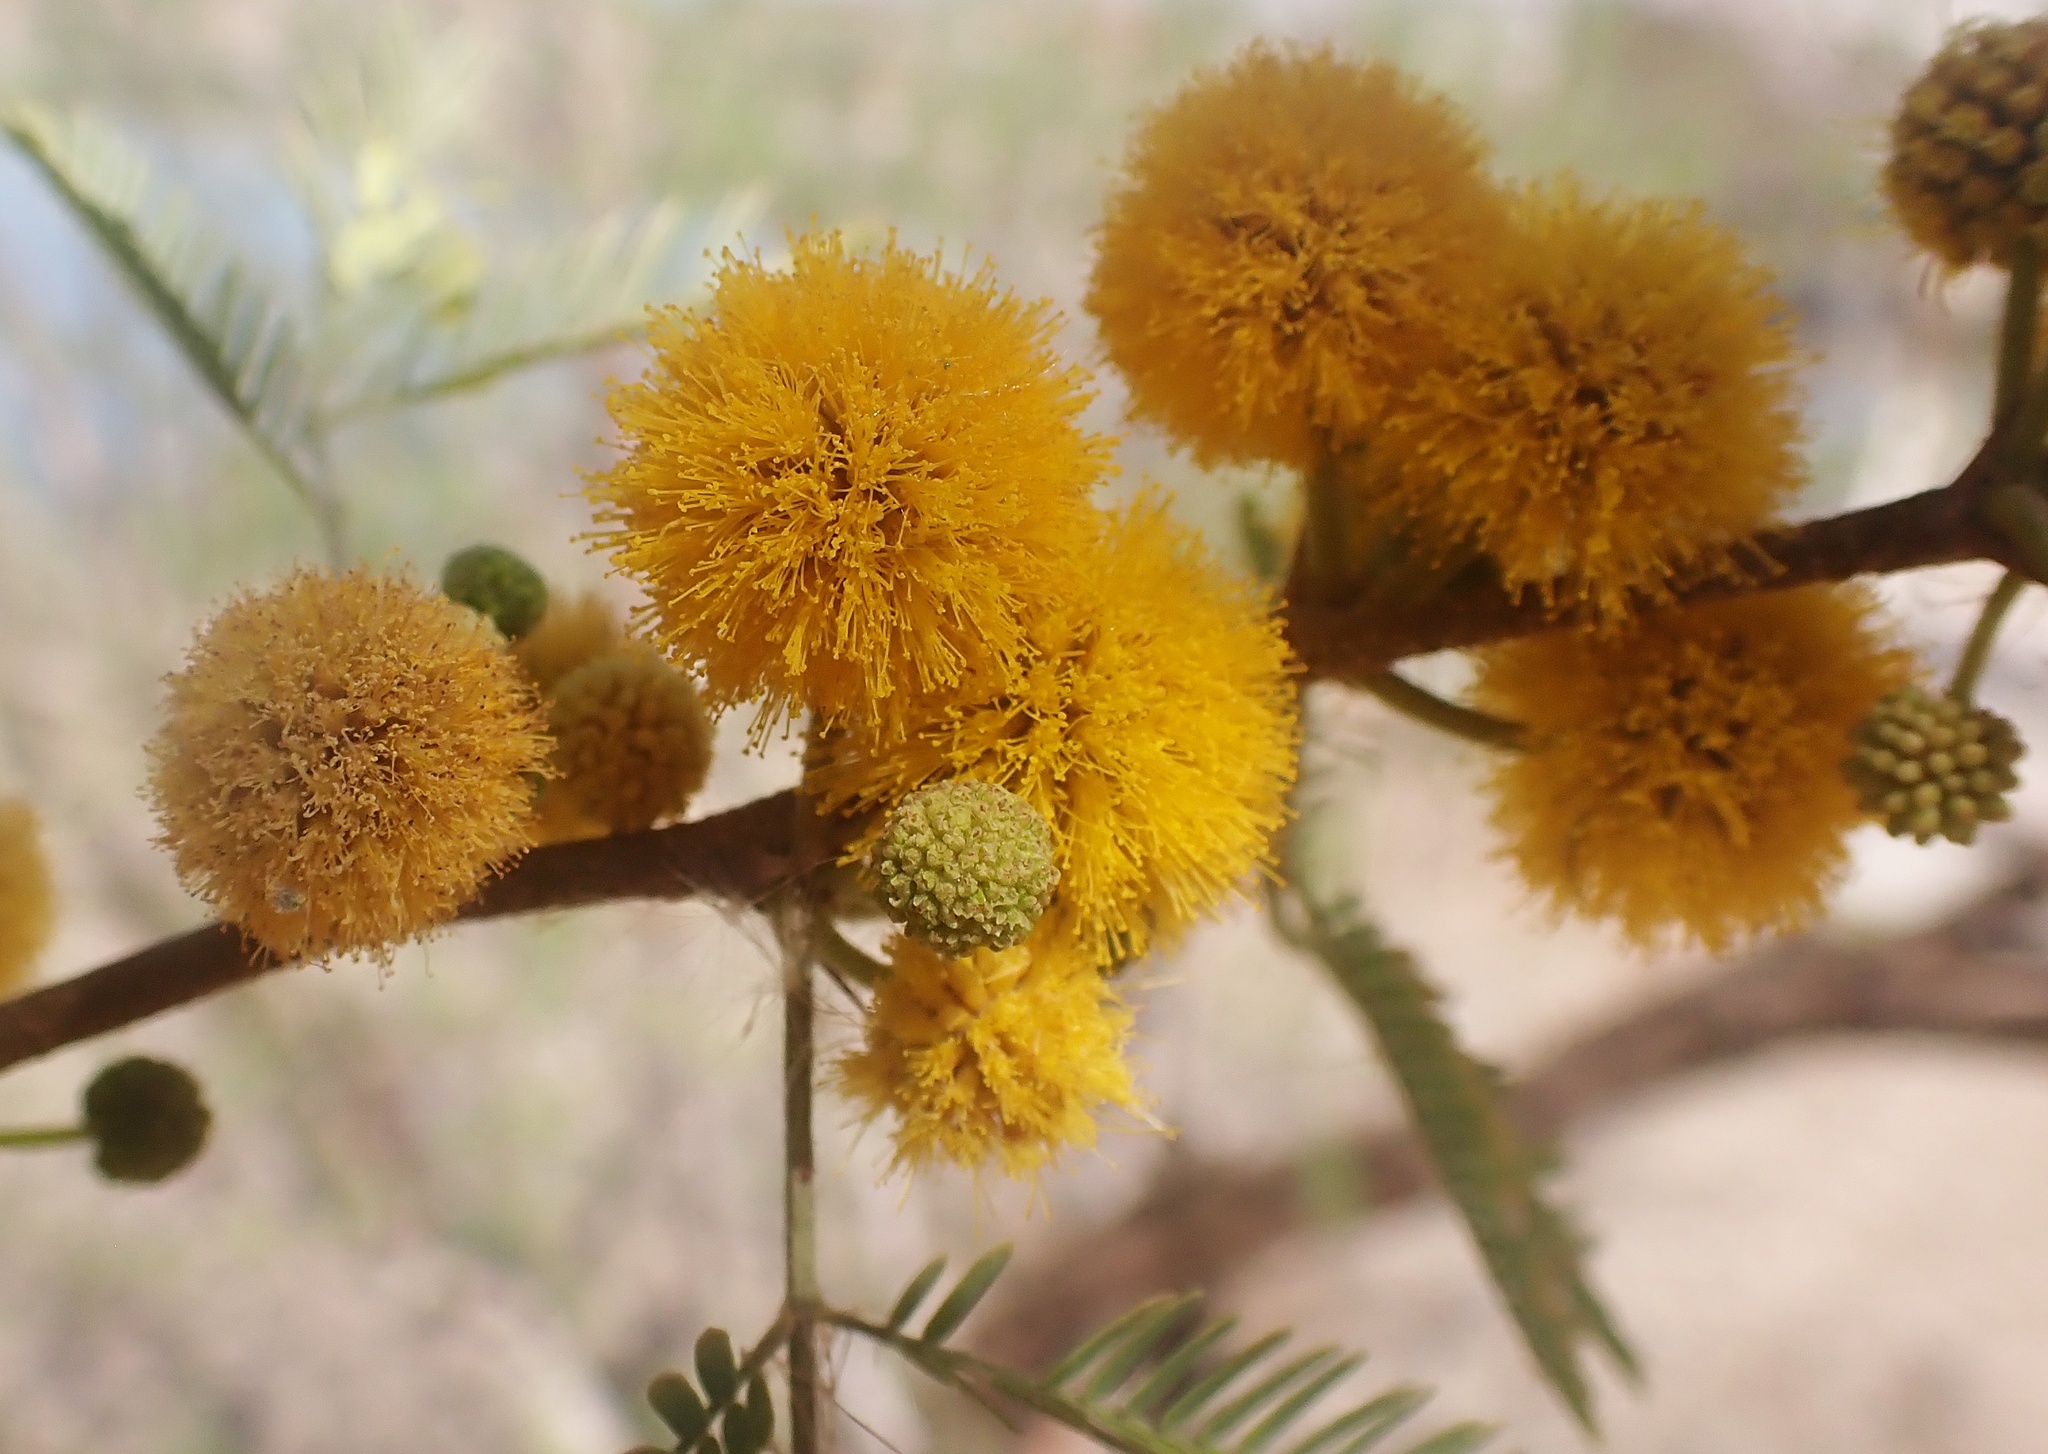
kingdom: Plantae
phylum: Tracheophyta
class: Magnoliopsida
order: Fabales
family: Fabaceae
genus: Vachellia
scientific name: Vachellia farnesiana
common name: Sweet acacia
